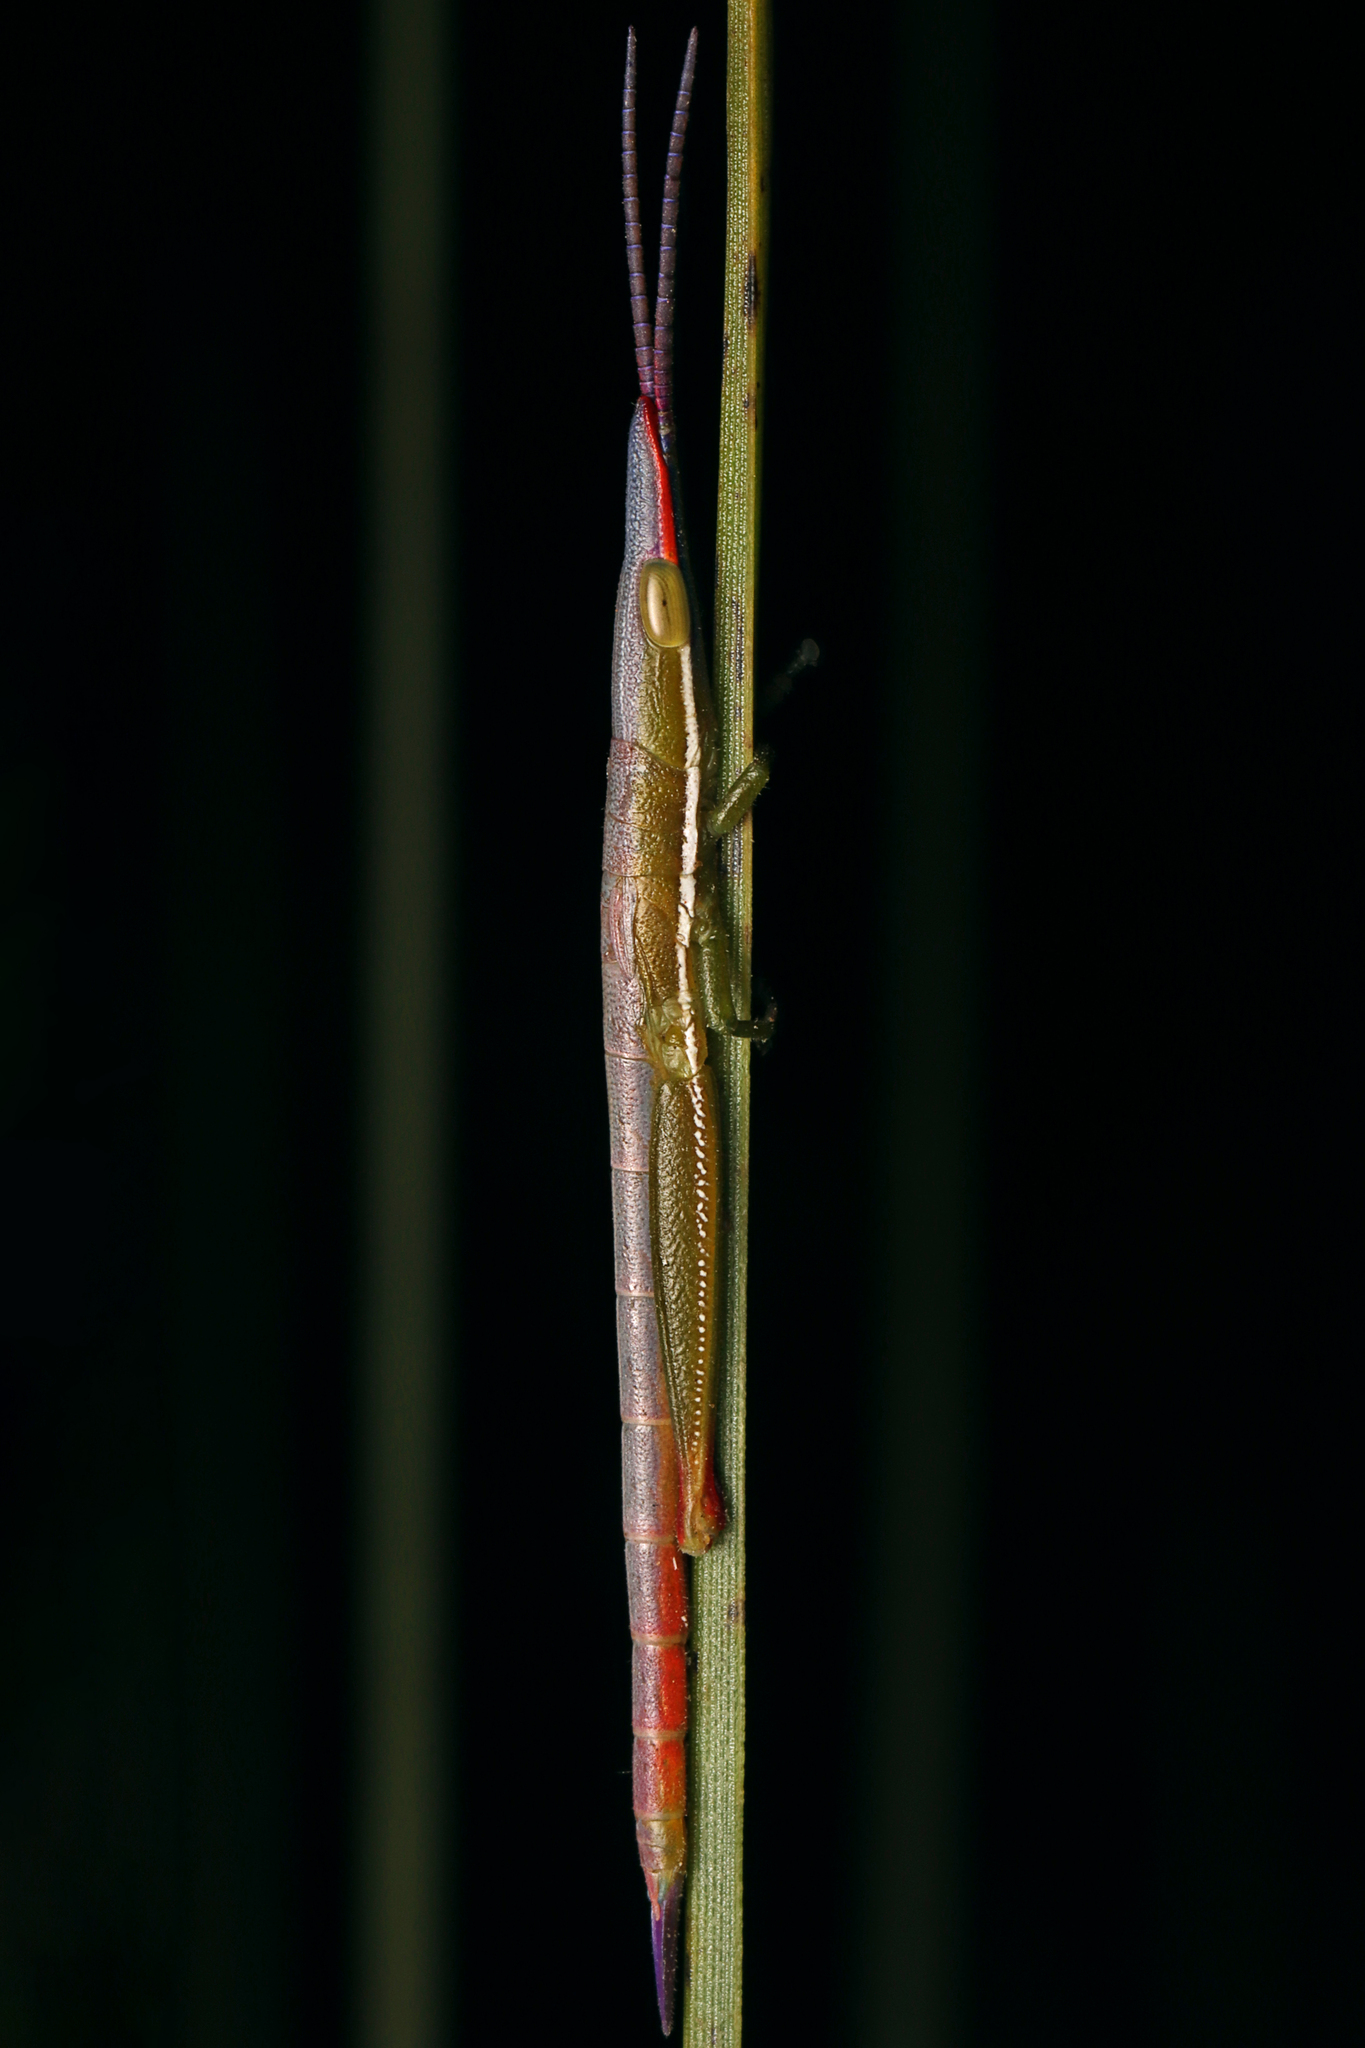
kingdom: Animalia
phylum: Arthropoda
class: Insecta
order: Orthoptera
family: Pyrgomorphidae
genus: Psedna
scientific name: Psedna nana
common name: Variable psedna
